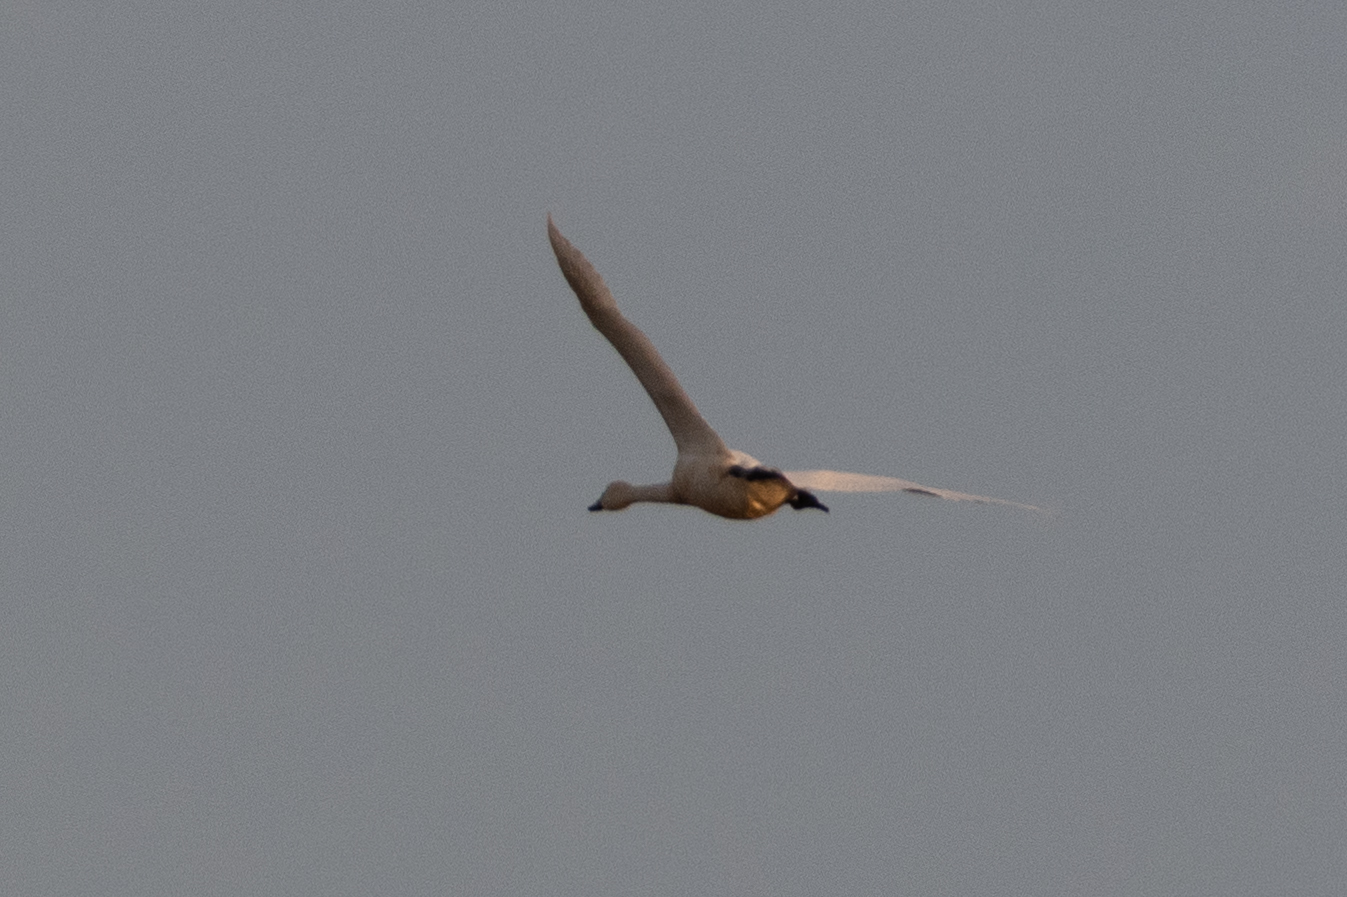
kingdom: Animalia
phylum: Chordata
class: Aves
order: Anseriformes
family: Anatidae
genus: Cygnus
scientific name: Cygnus columbianus
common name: Tundra swan
